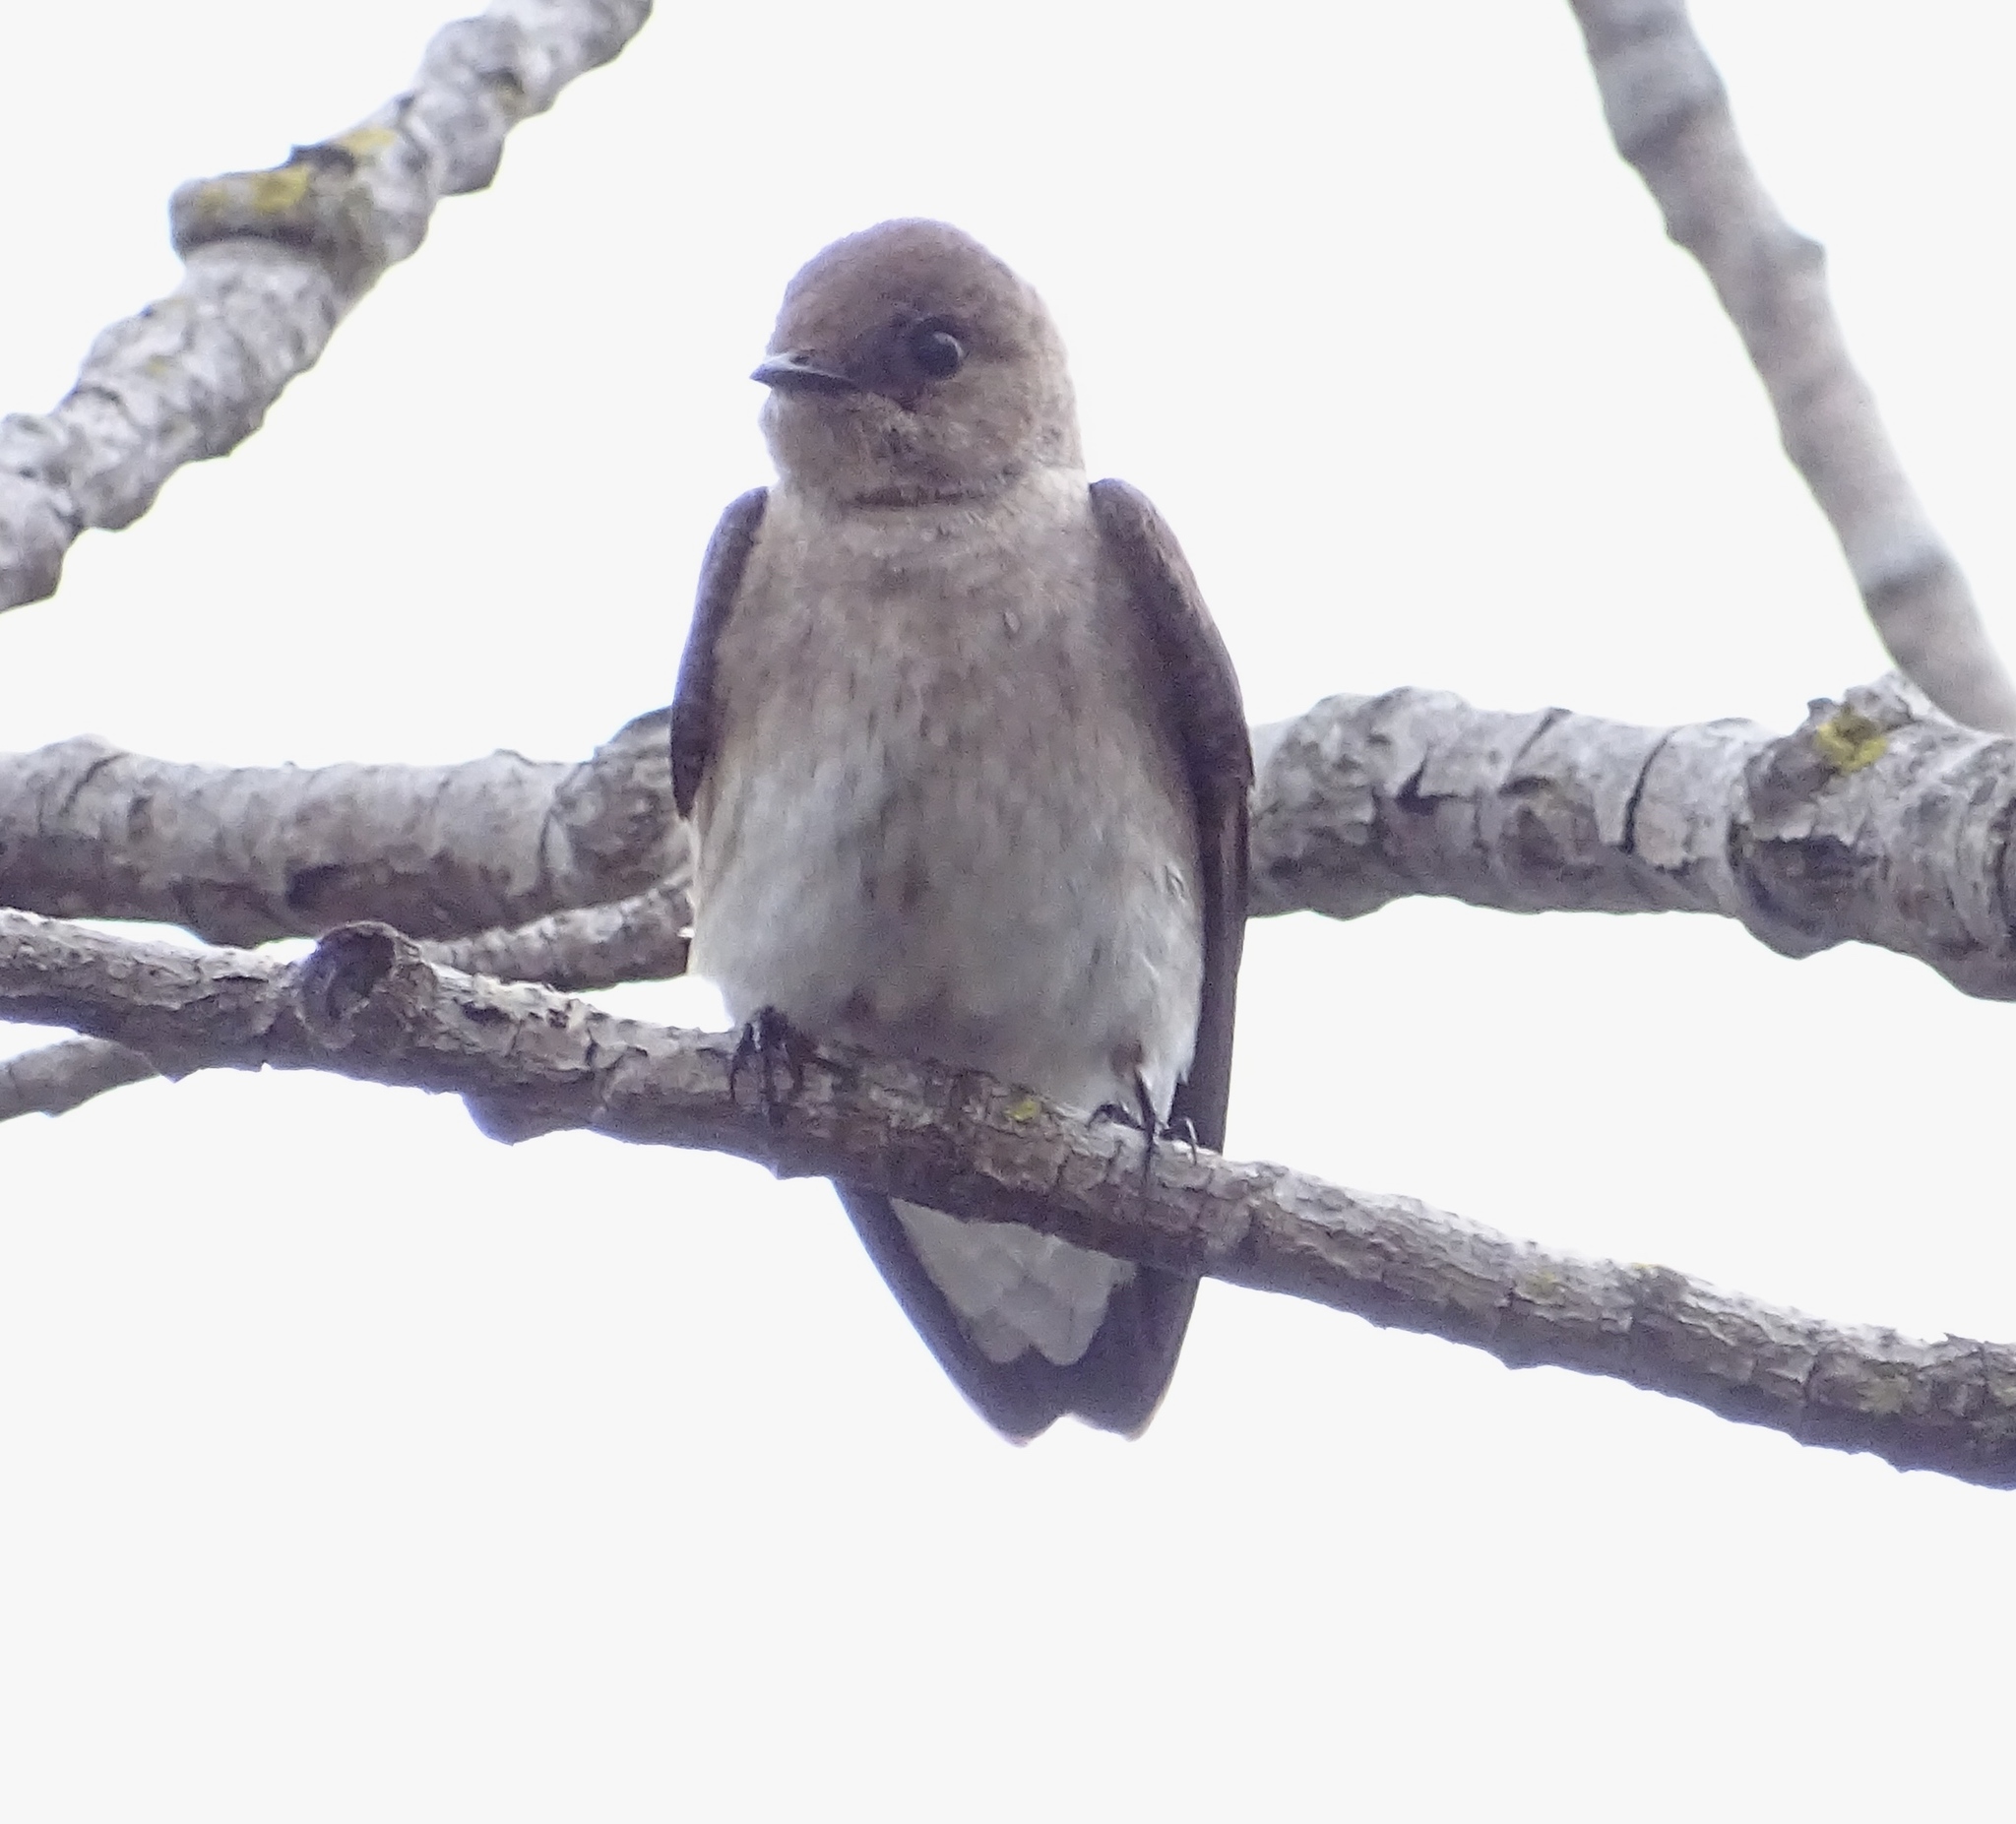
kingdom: Animalia
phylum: Chordata
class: Aves
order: Passeriformes
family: Hirundinidae
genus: Stelgidopteryx
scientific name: Stelgidopteryx serripennis
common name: Northern rough-winged swallow
